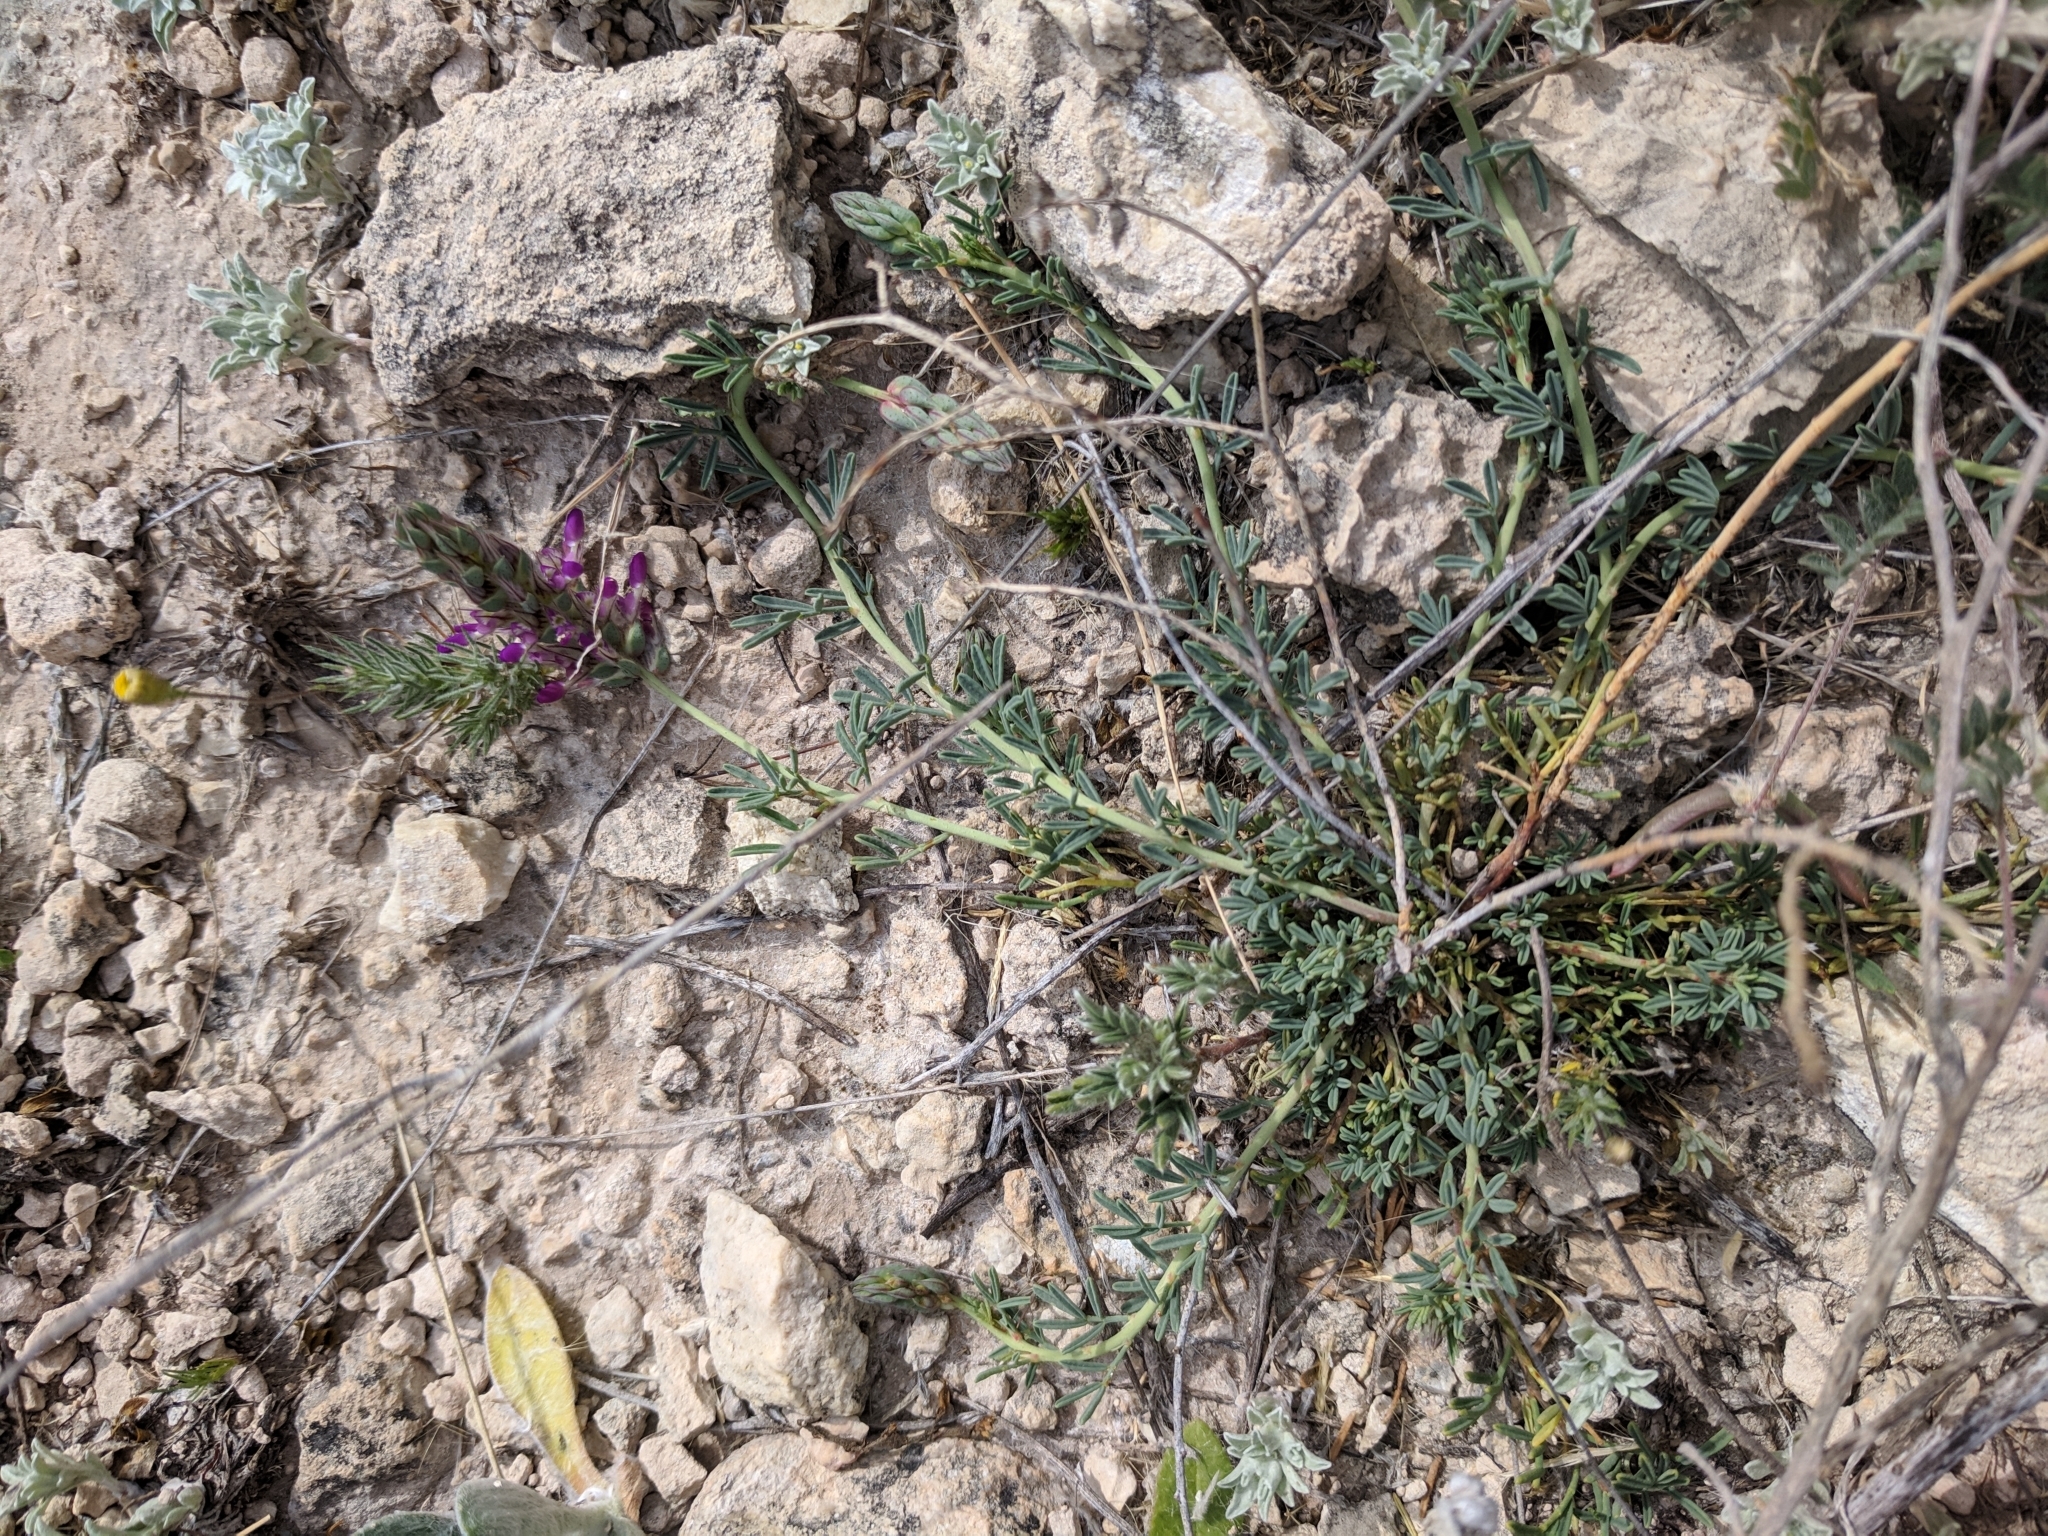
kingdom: Plantae
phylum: Tracheophyta
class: Magnoliopsida
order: Fabales
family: Fabaceae
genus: Dalea
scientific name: Dalea pogonathera
